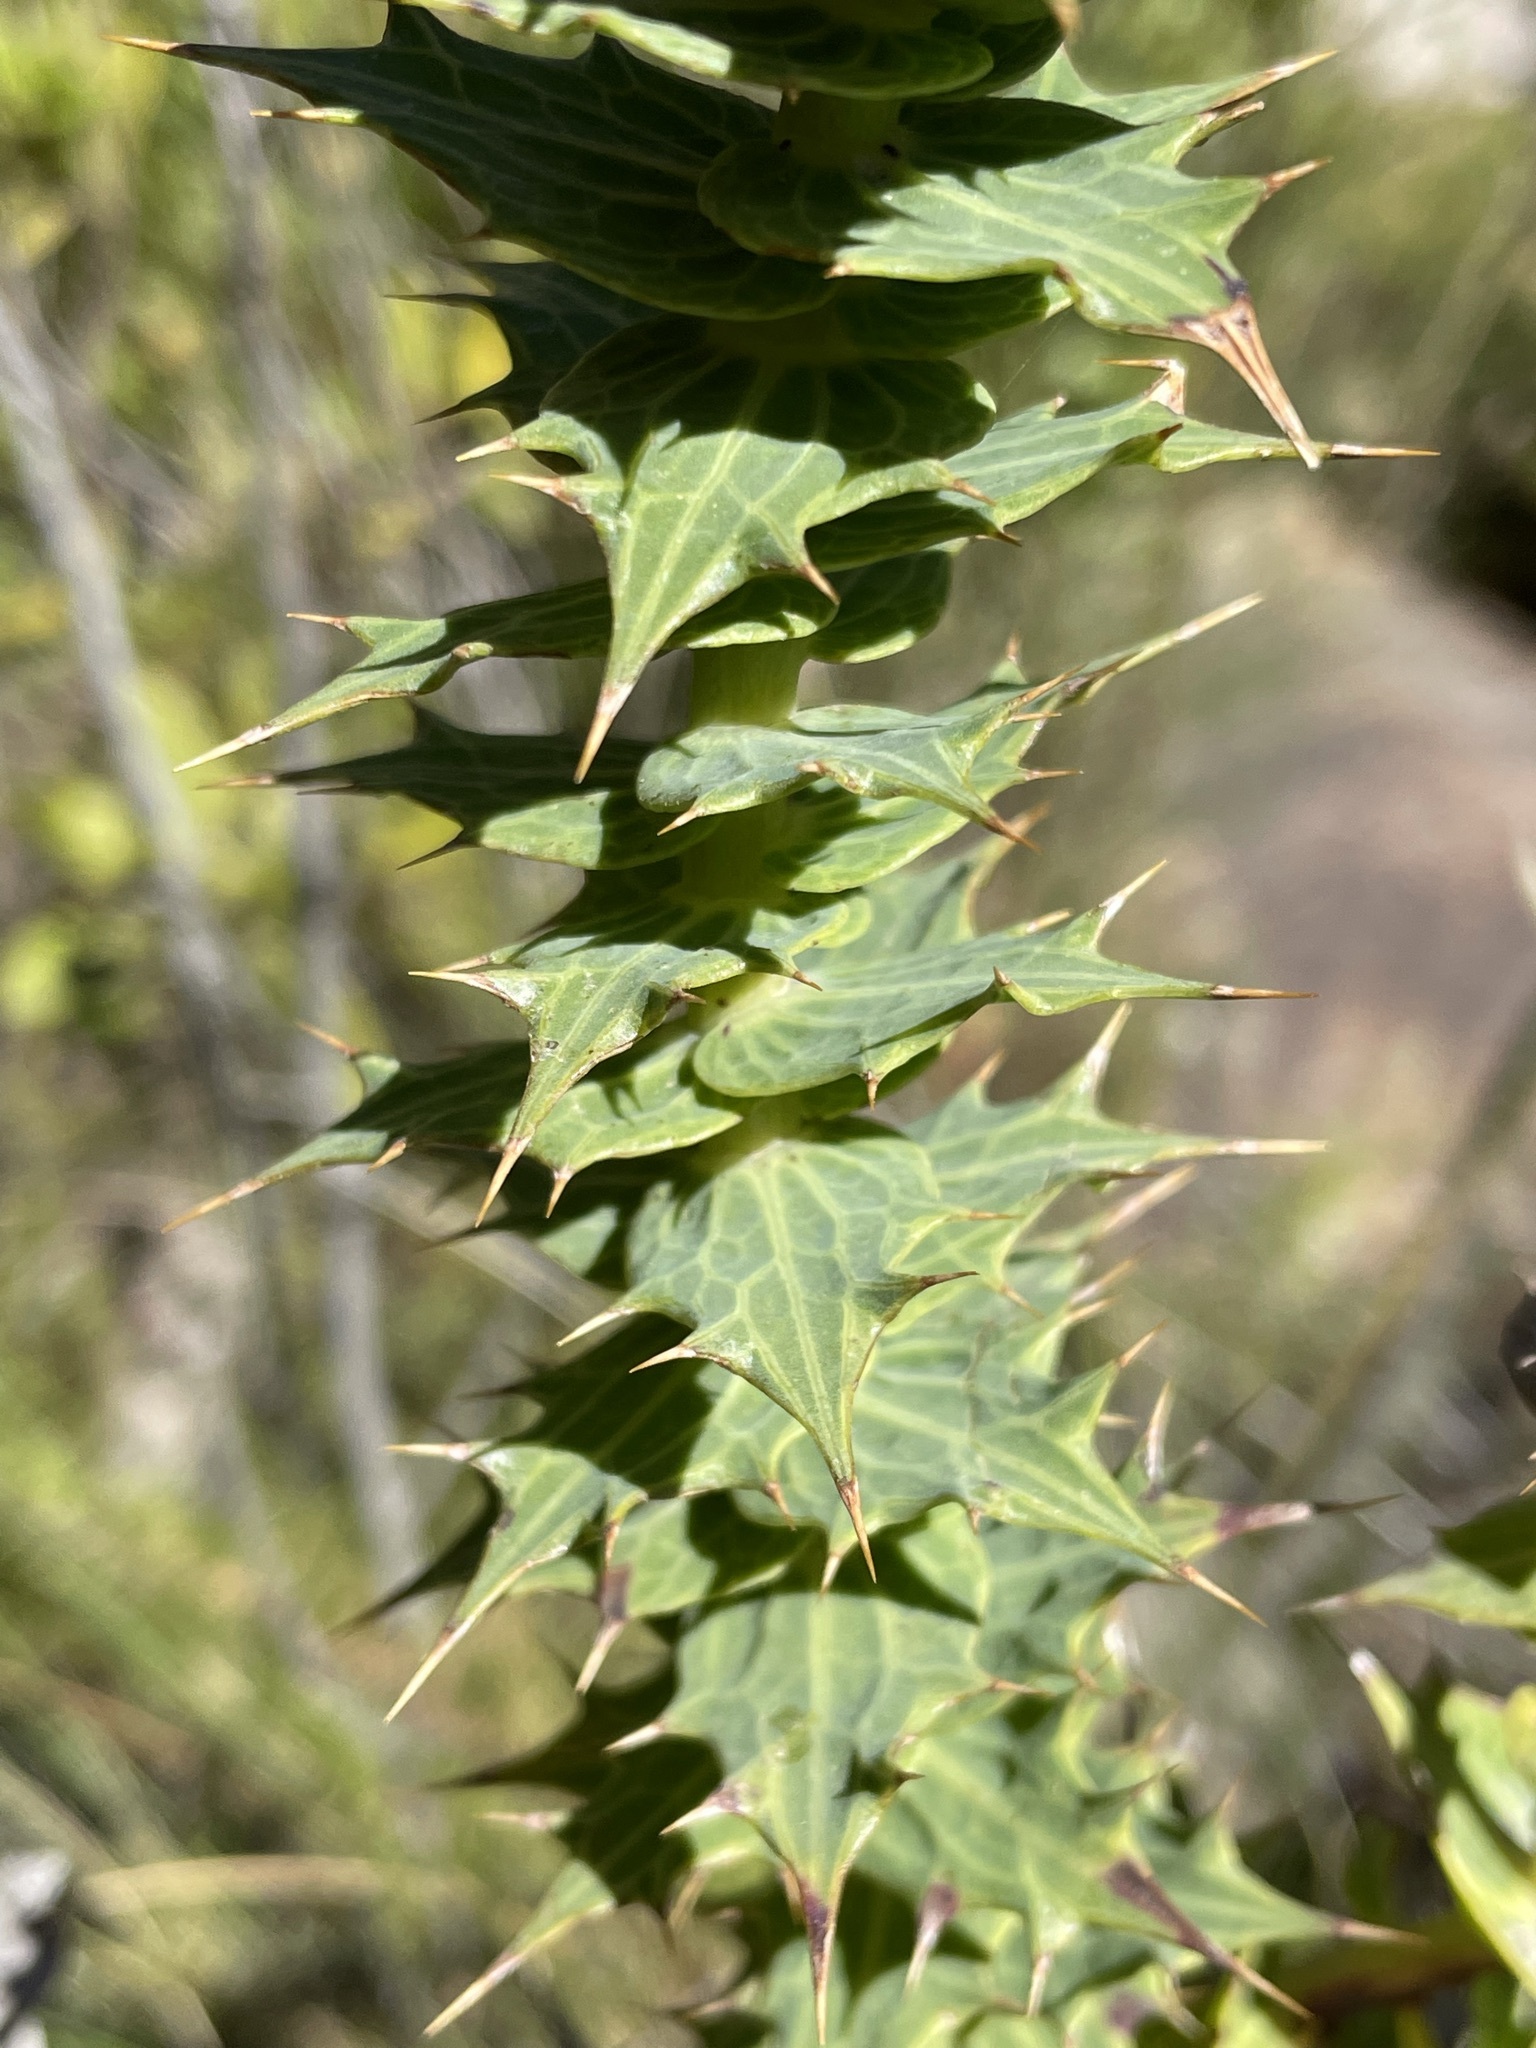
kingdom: Plantae
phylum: Tracheophyta
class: Magnoliopsida
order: Asterales
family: Asteraceae
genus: Berkheya
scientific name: Berkheya cruciata
